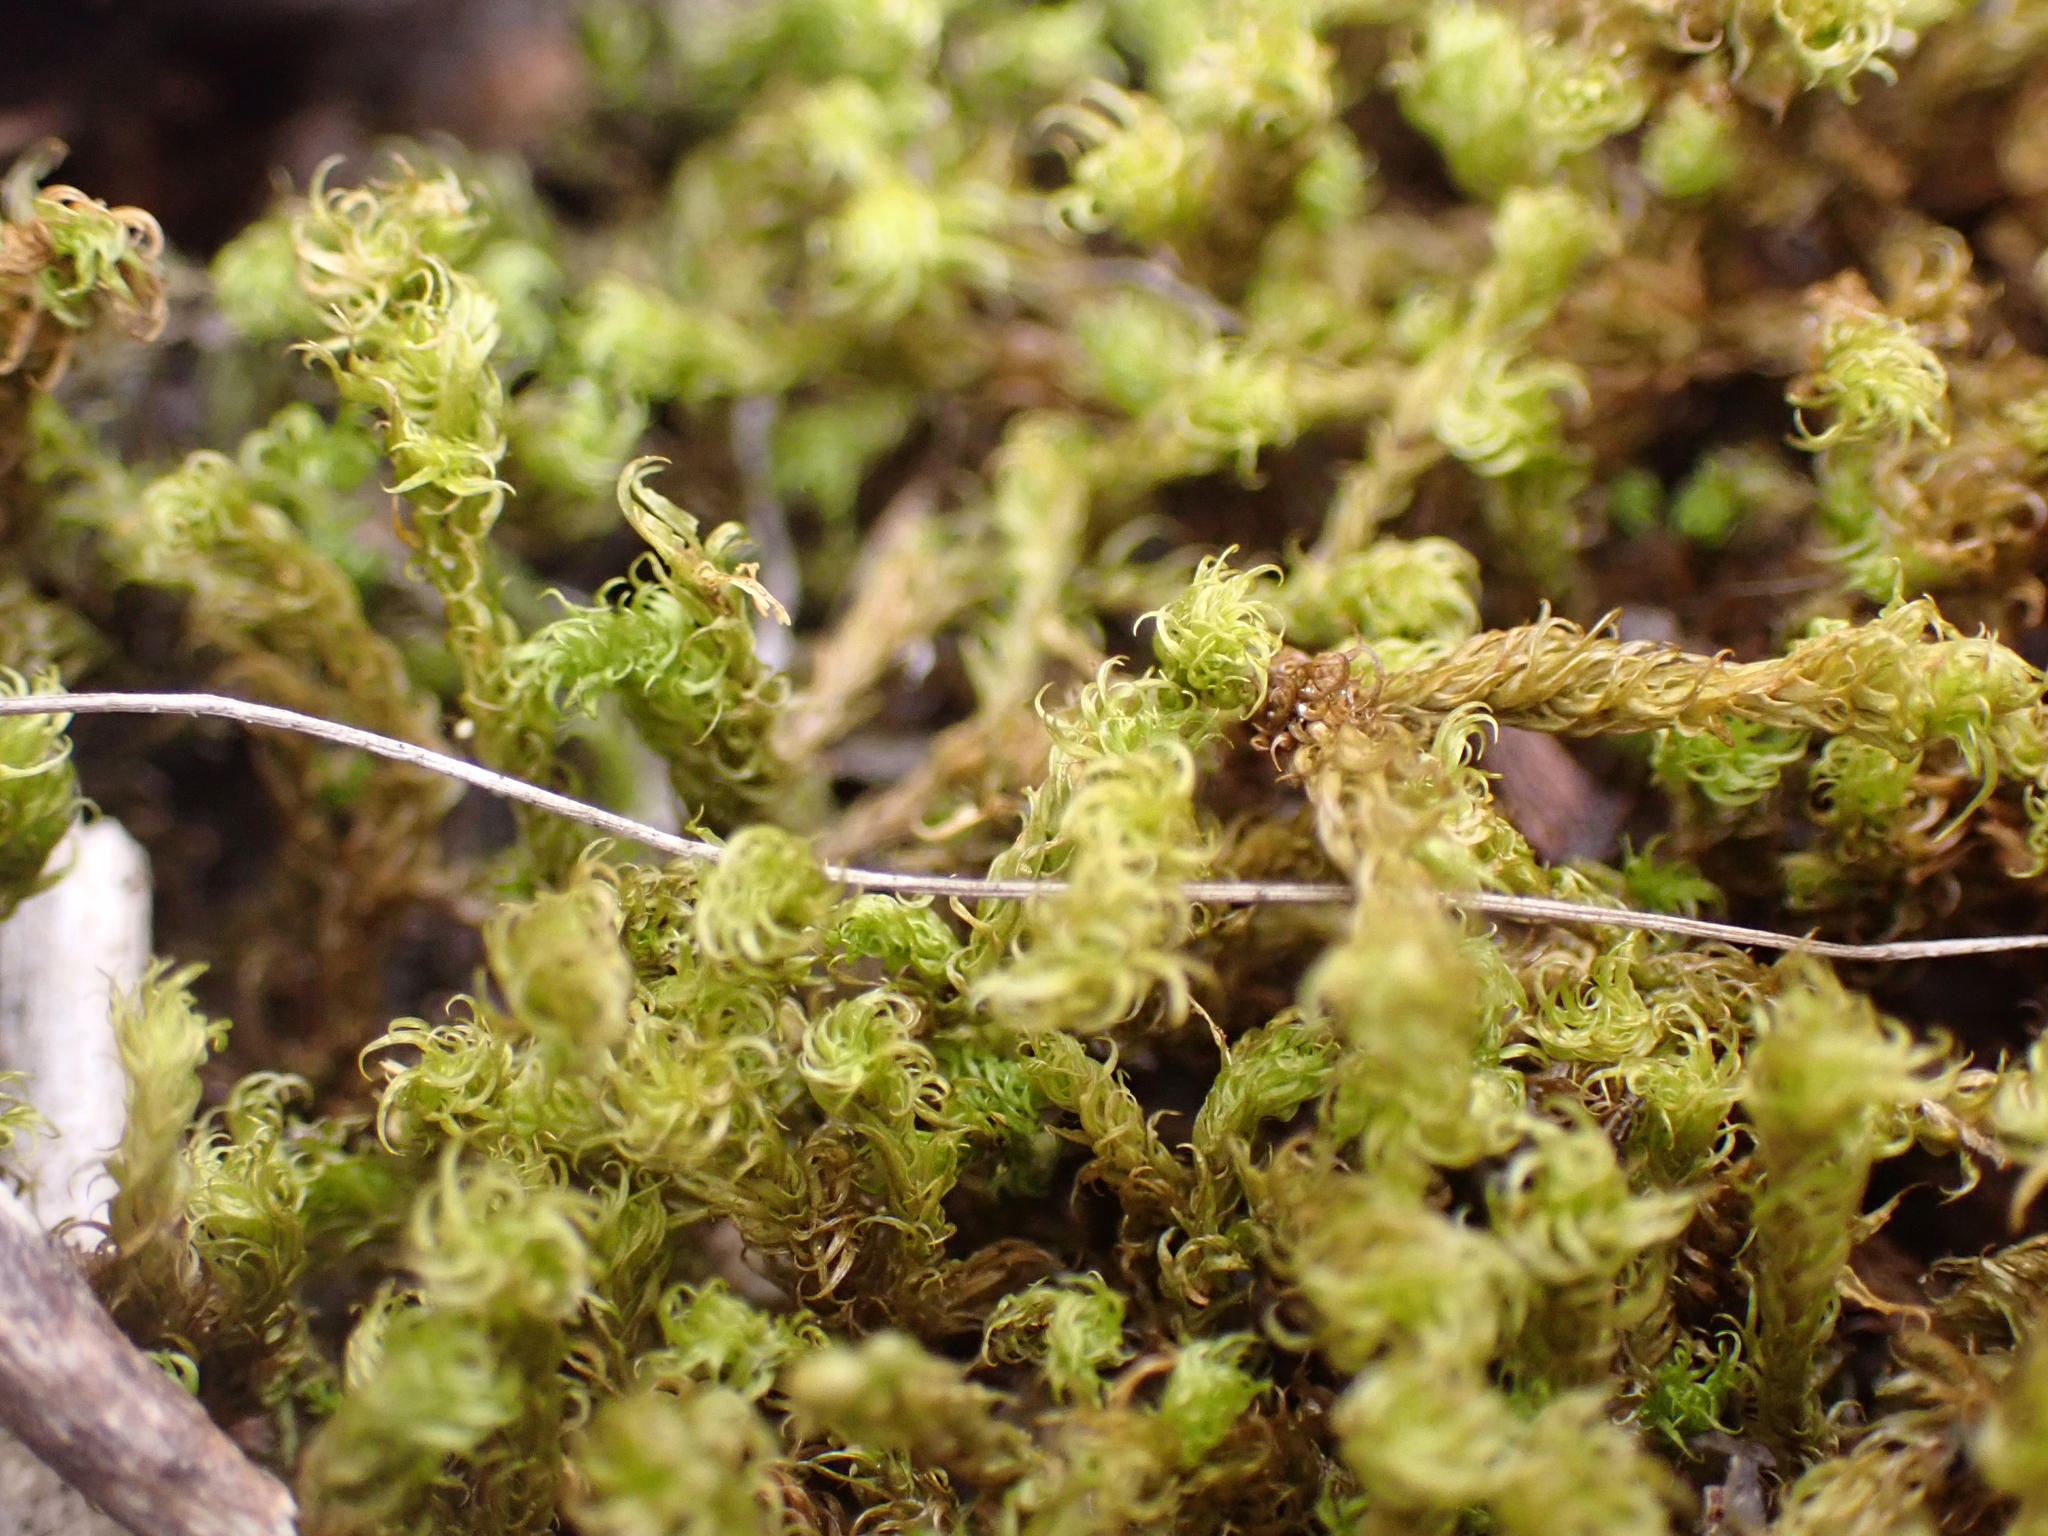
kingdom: Plantae
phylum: Bryophyta
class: Bryopsida
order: Pottiales
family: Pottiaceae
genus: Triquetrella
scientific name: Triquetrella paradoxa
